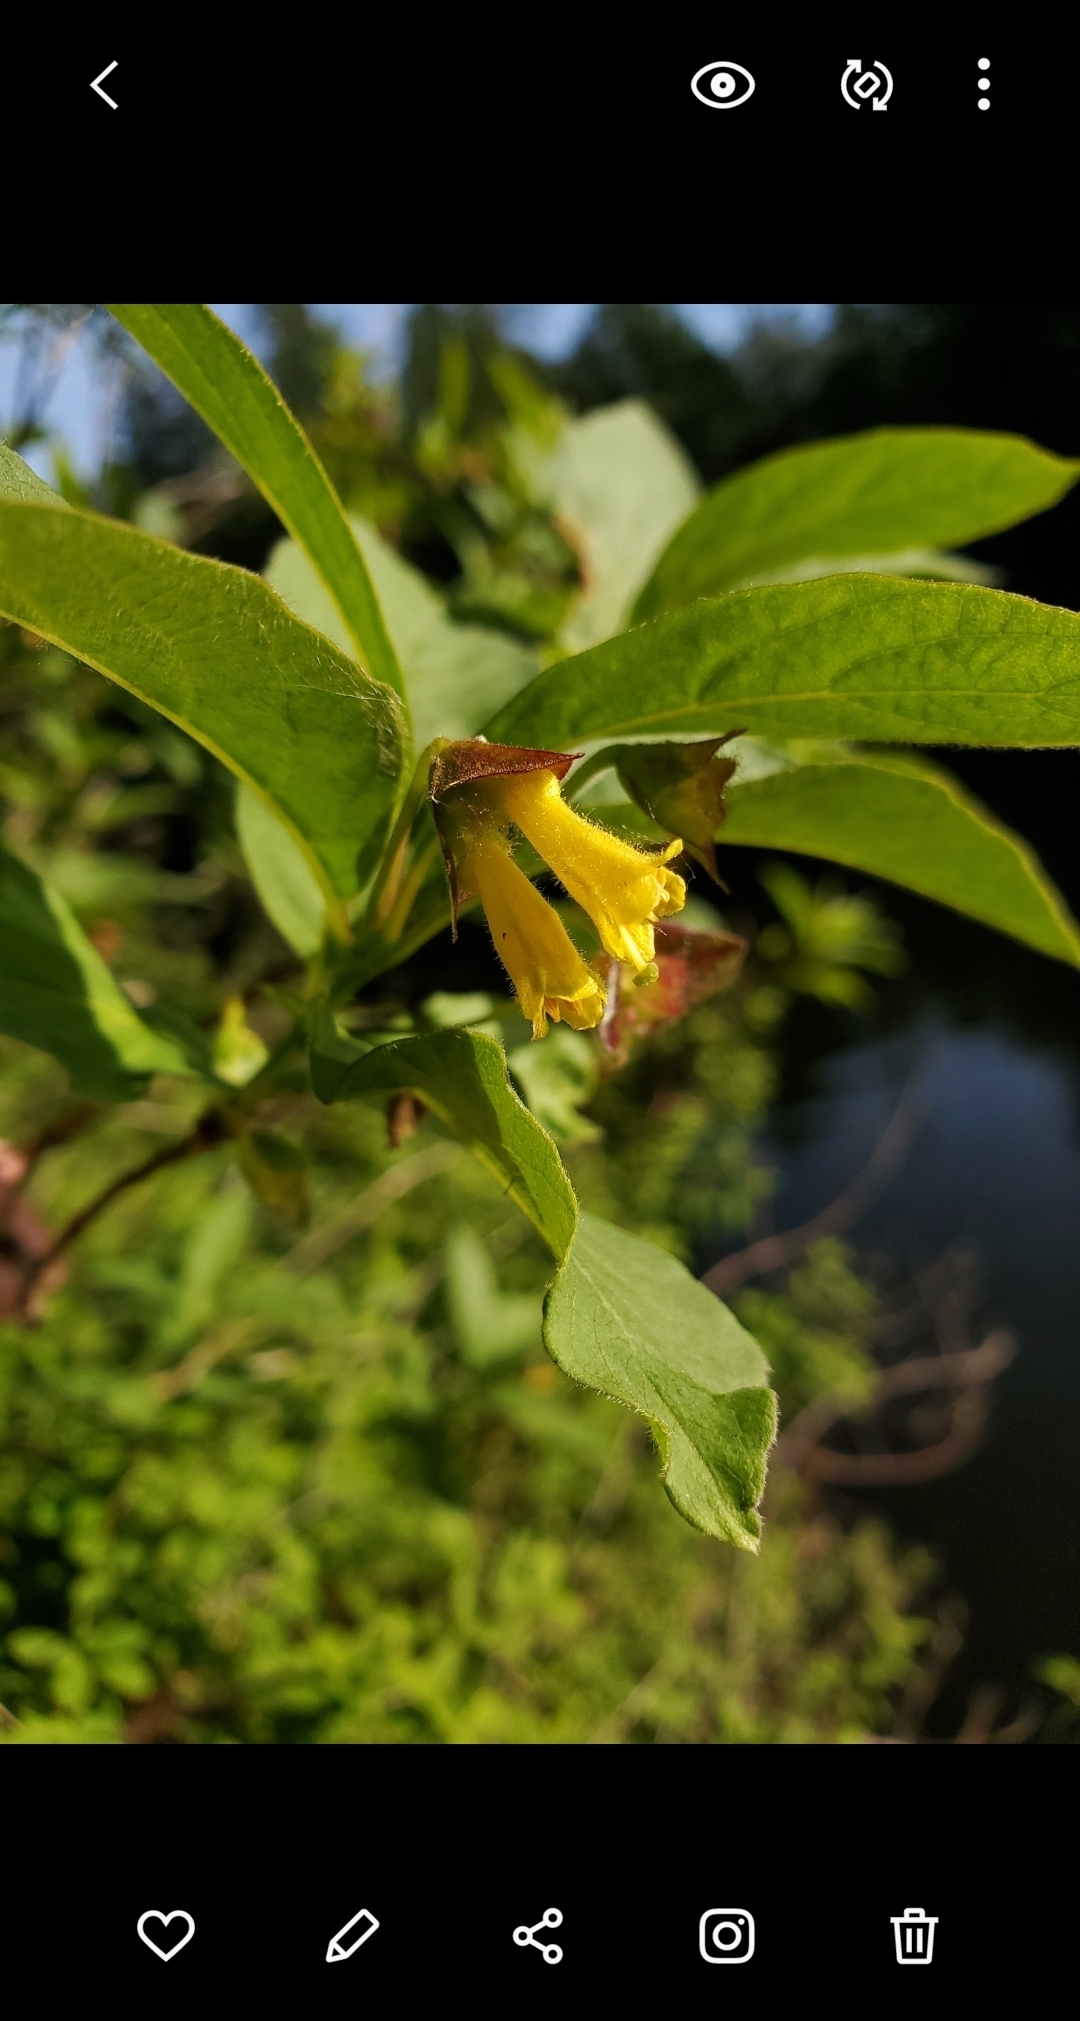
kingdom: Plantae
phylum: Tracheophyta
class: Magnoliopsida
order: Dipsacales
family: Caprifoliaceae
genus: Lonicera
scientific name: Lonicera involucrata
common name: Californian honeysuckle
